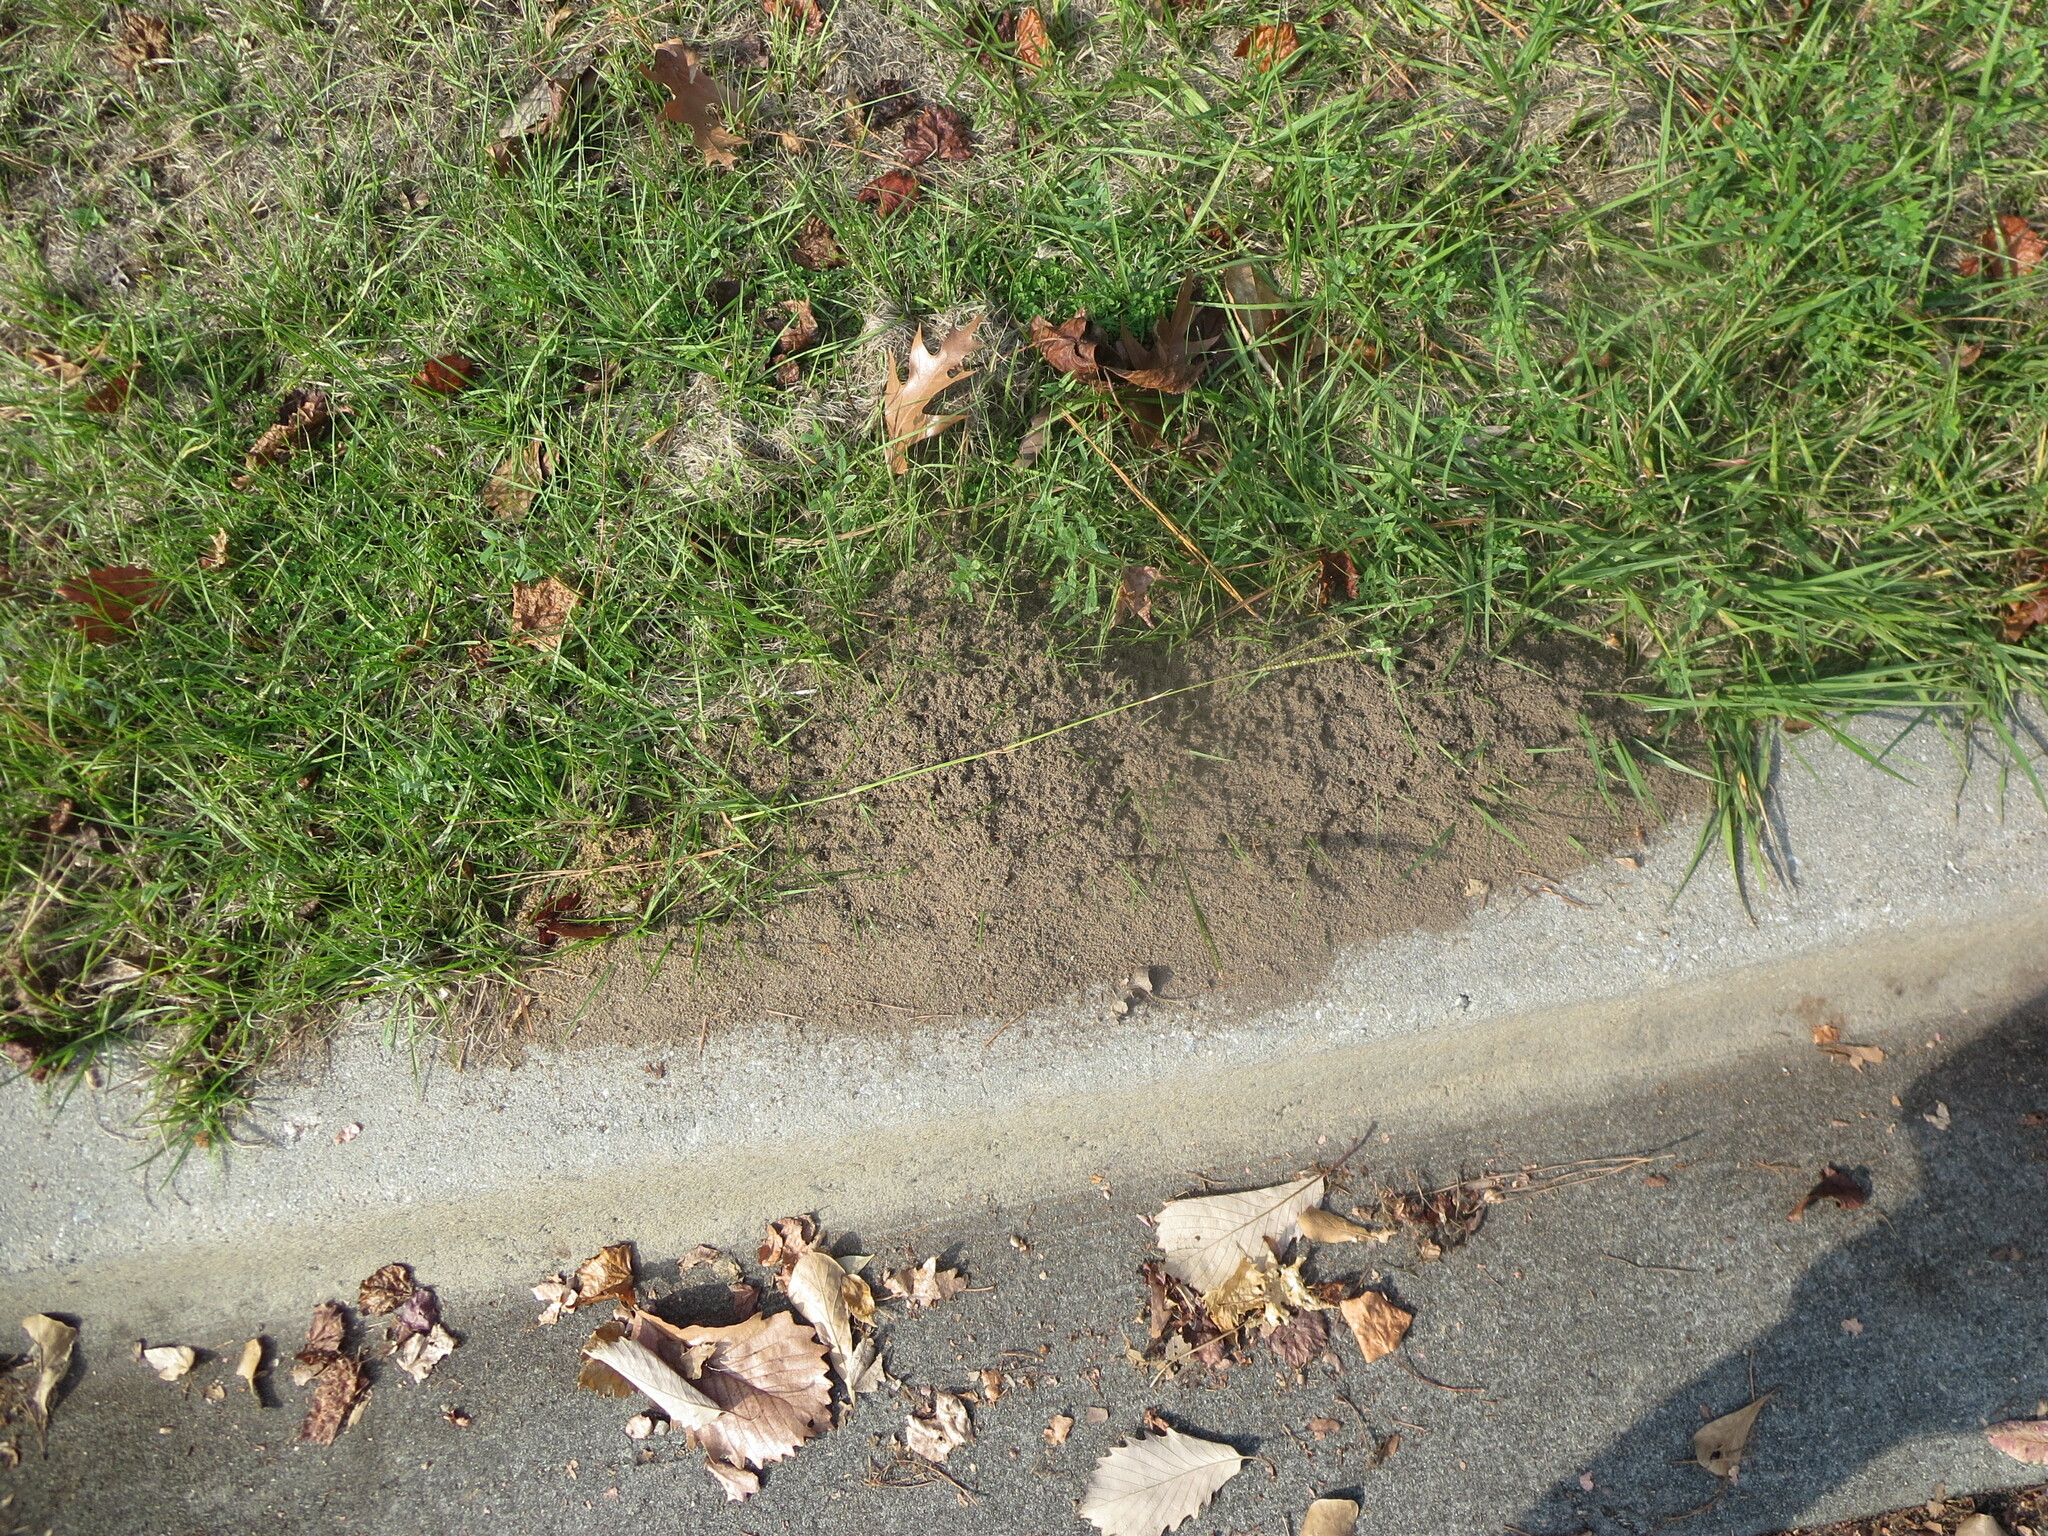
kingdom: Animalia
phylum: Arthropoda
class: Insecta
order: Hymenoptera
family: Formicidae
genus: Solenopsis
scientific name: Solenopsis invicta
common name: Red imported fire ant
